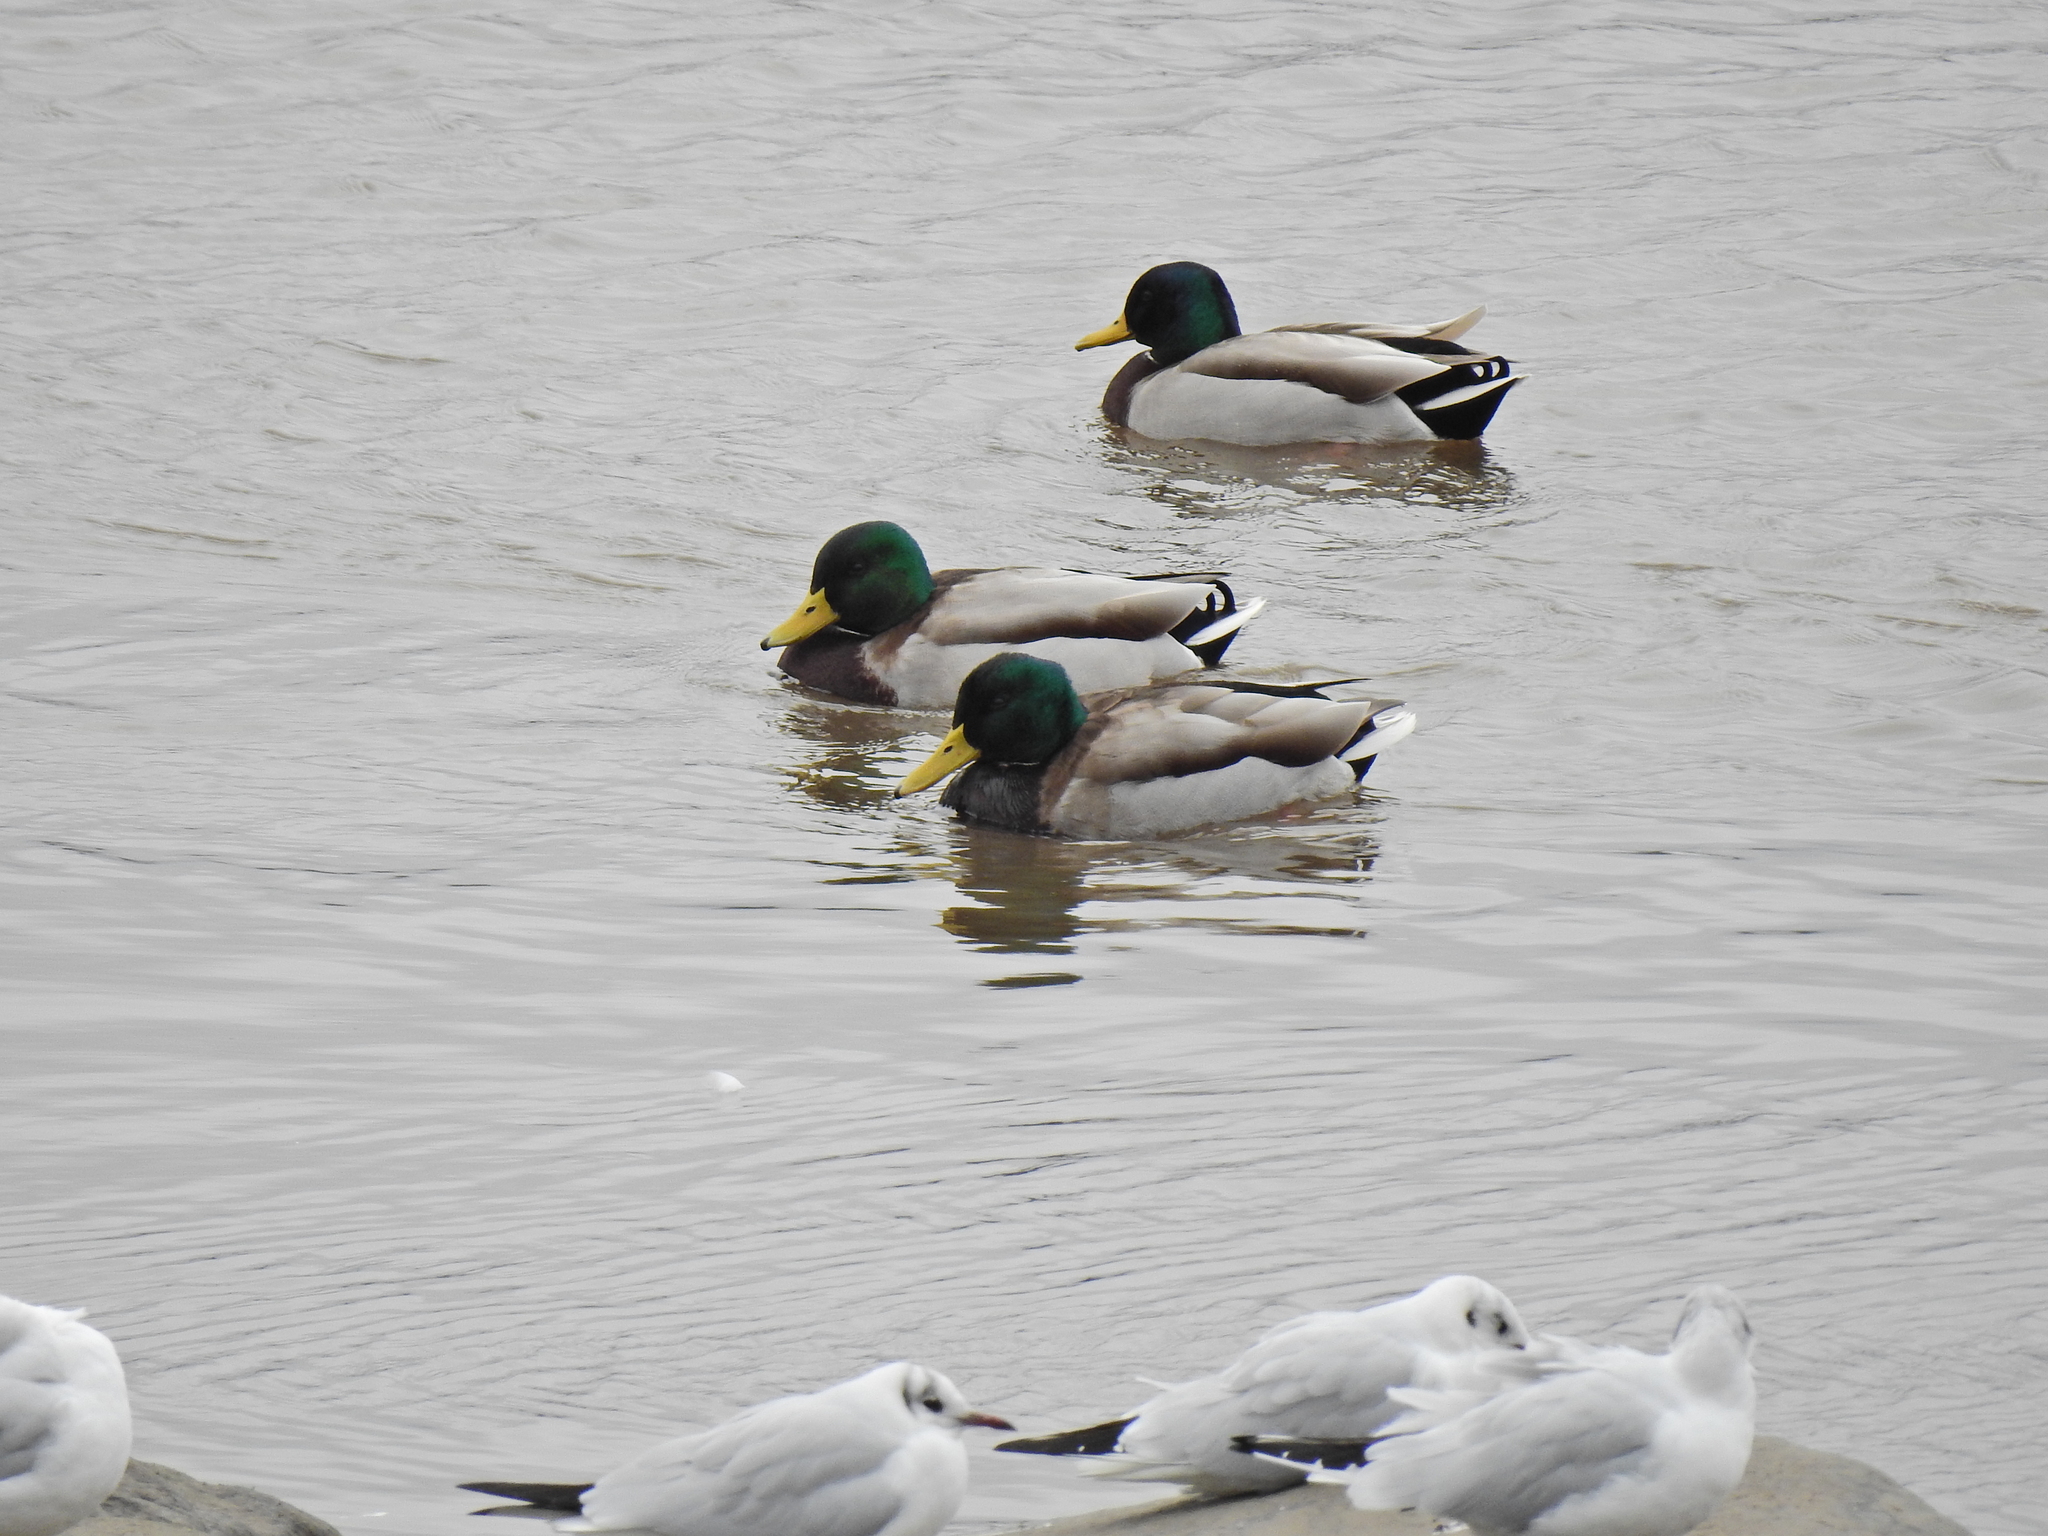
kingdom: Animalia
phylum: Chordata
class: Aves
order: Anseriformes
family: Anatidae
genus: Anas
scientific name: Anas platyrhynchos
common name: Mallard
